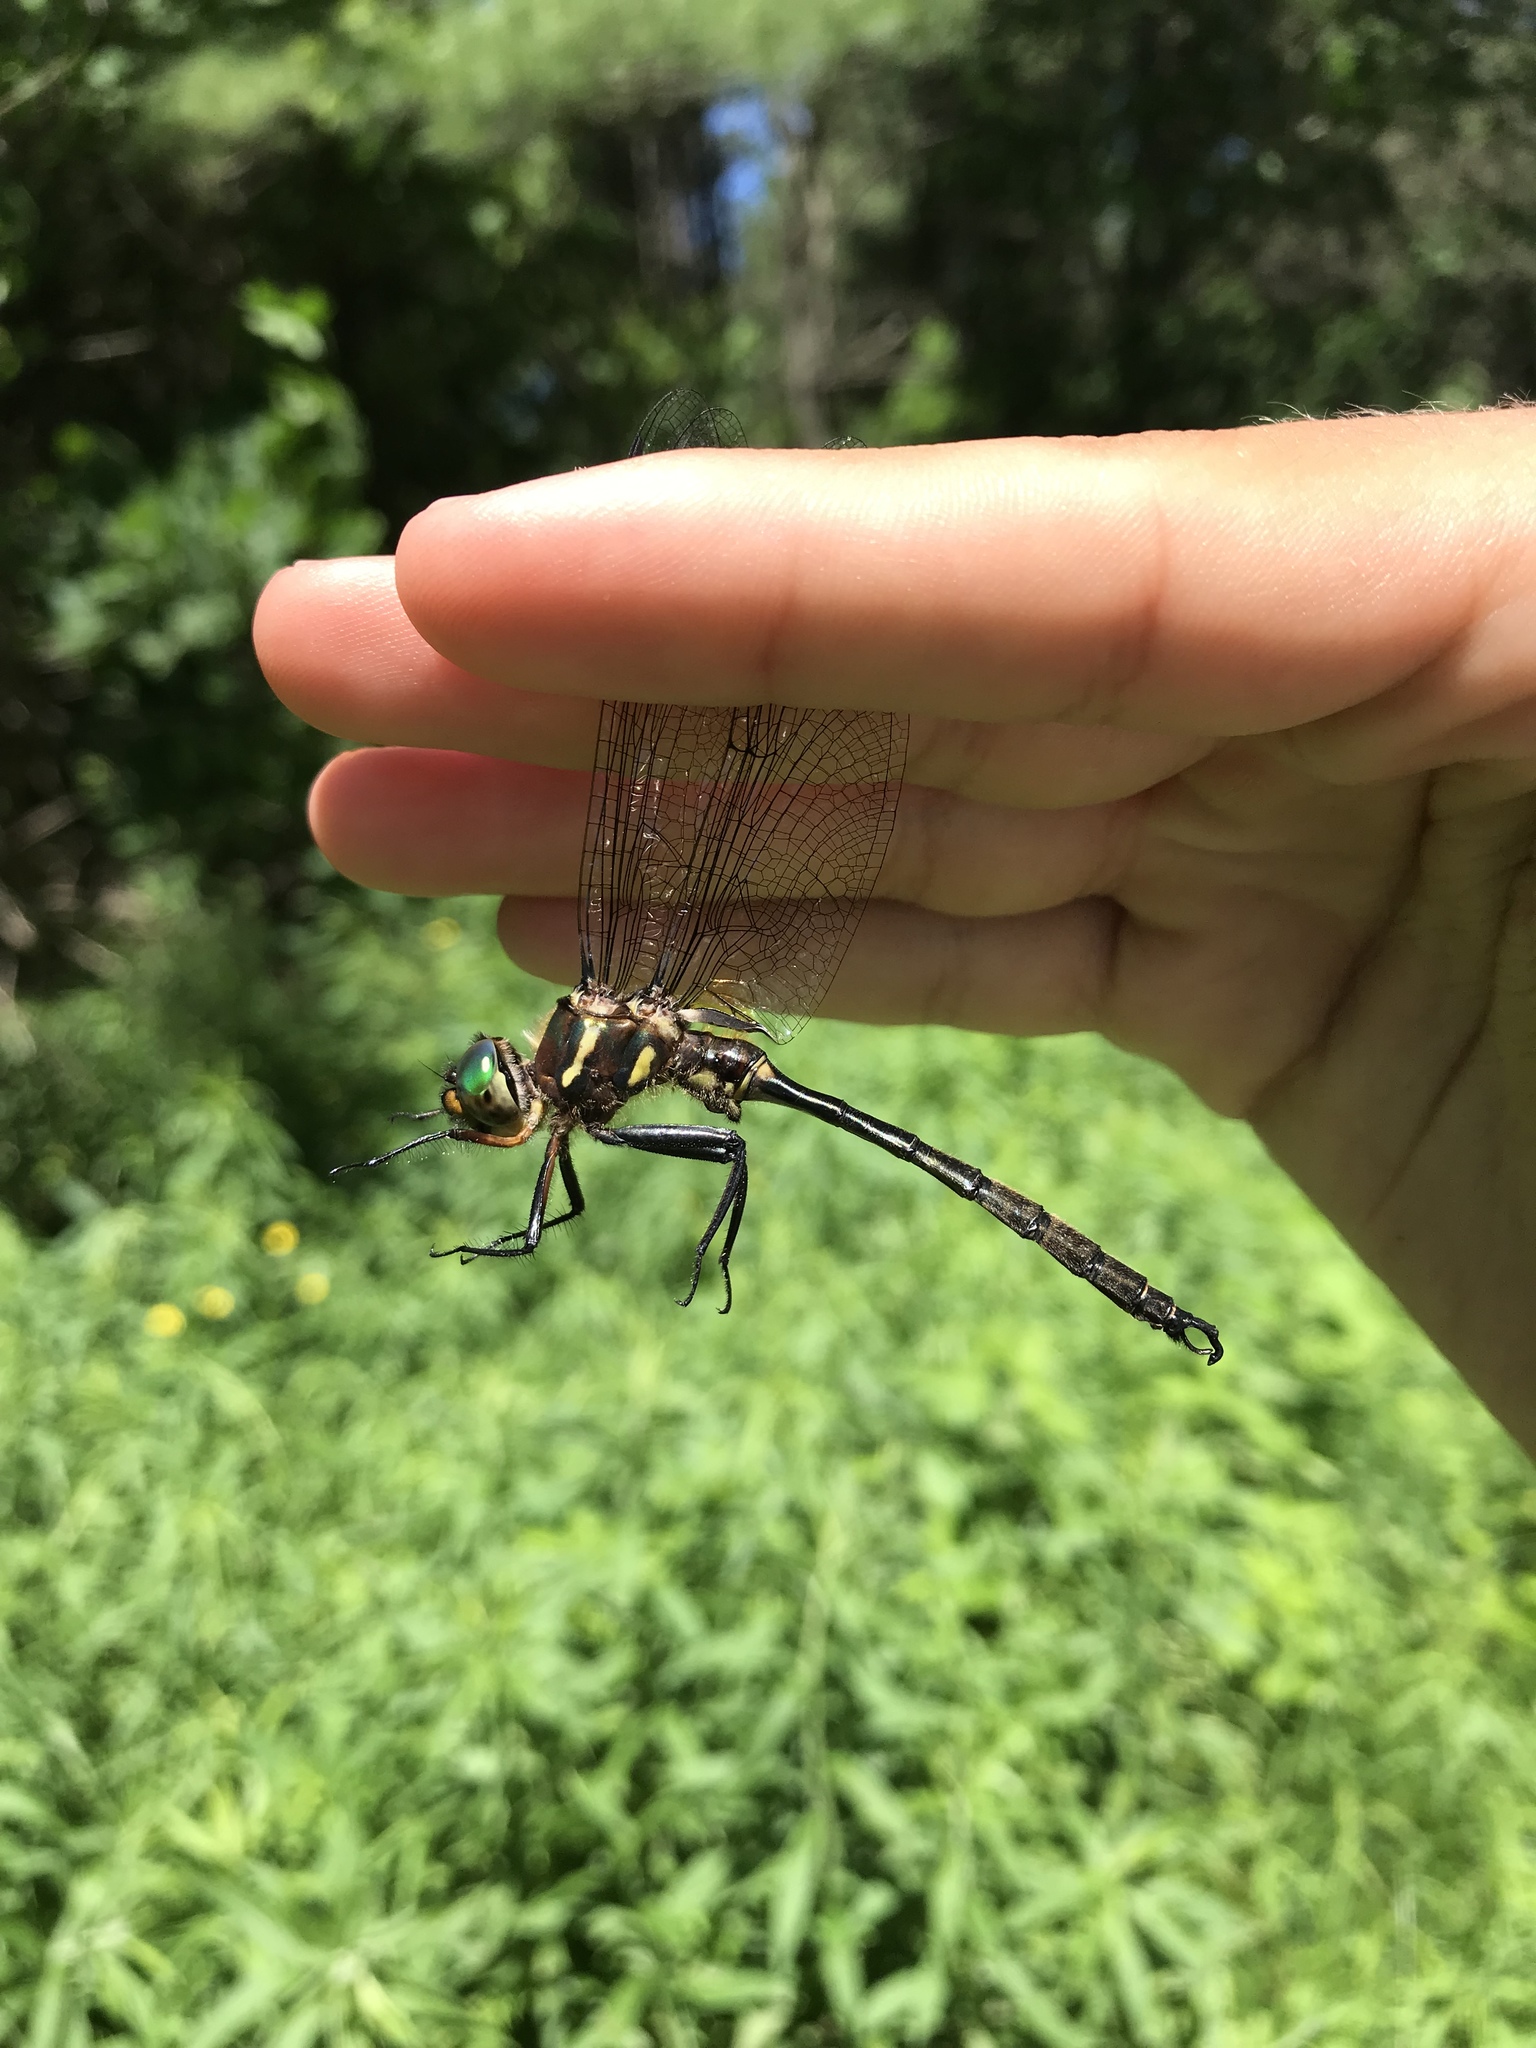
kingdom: Animalia
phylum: Arthropoda
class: Insecta
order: Odonata
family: Corduliidae
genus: Somatochlora
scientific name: Somatochlora hineana
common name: Hine's emerald
